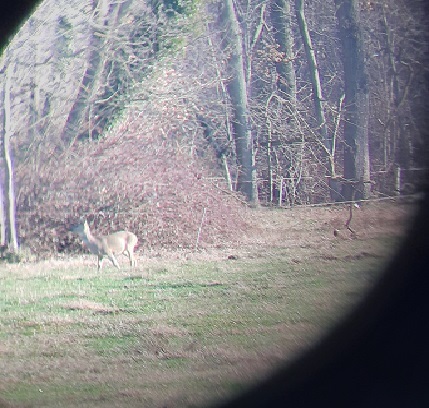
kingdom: Animalia
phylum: Chordata
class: Mammalia
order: Artiodactyla
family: Cervidae
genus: Capreolus
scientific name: Capreolus capreolus
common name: Western roe deer
